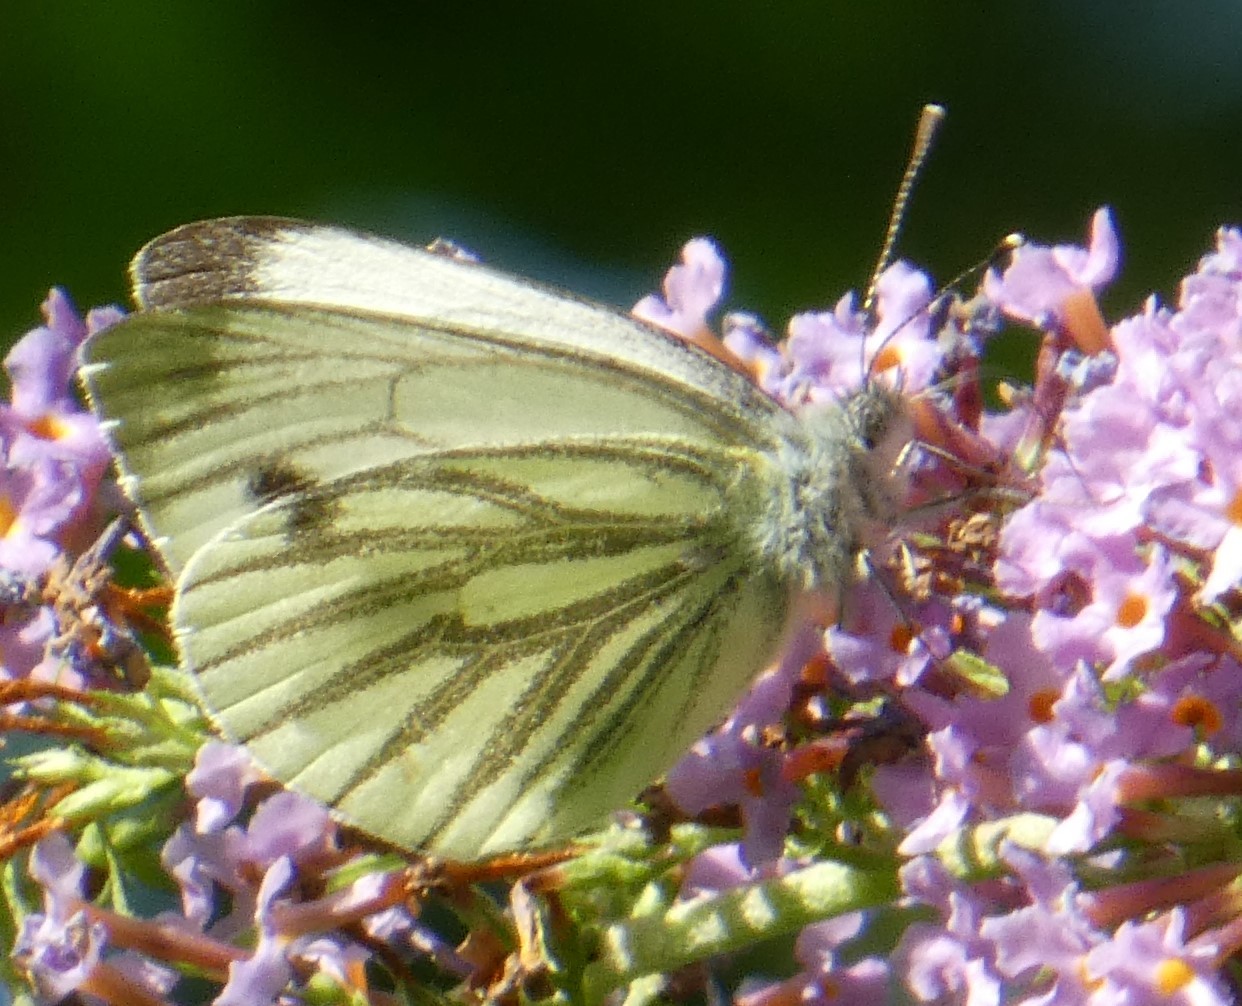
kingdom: Animalia
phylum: Arthropoda
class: Insecta
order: Lepidoptera
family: Pieridae
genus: Pieris
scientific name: Pieris napi
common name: Green-veined white
